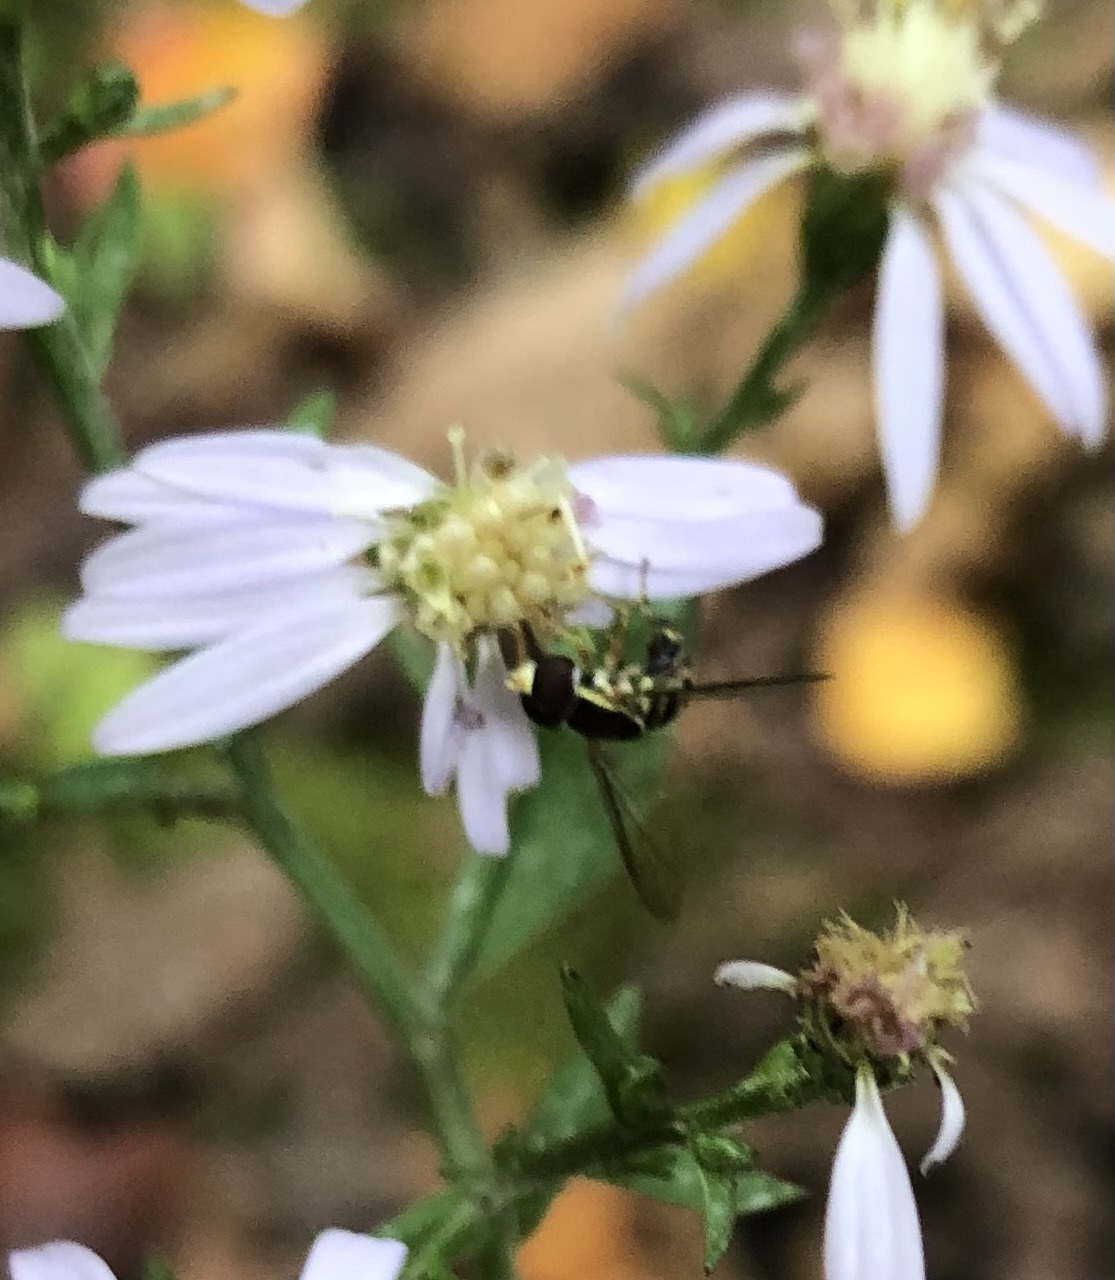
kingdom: Animalia
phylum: Arthropoda
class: Insecta
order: Diptera
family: Syrphidae
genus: Toxomerus
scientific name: Toxomerus geminatus
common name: Eastern calligrapher
